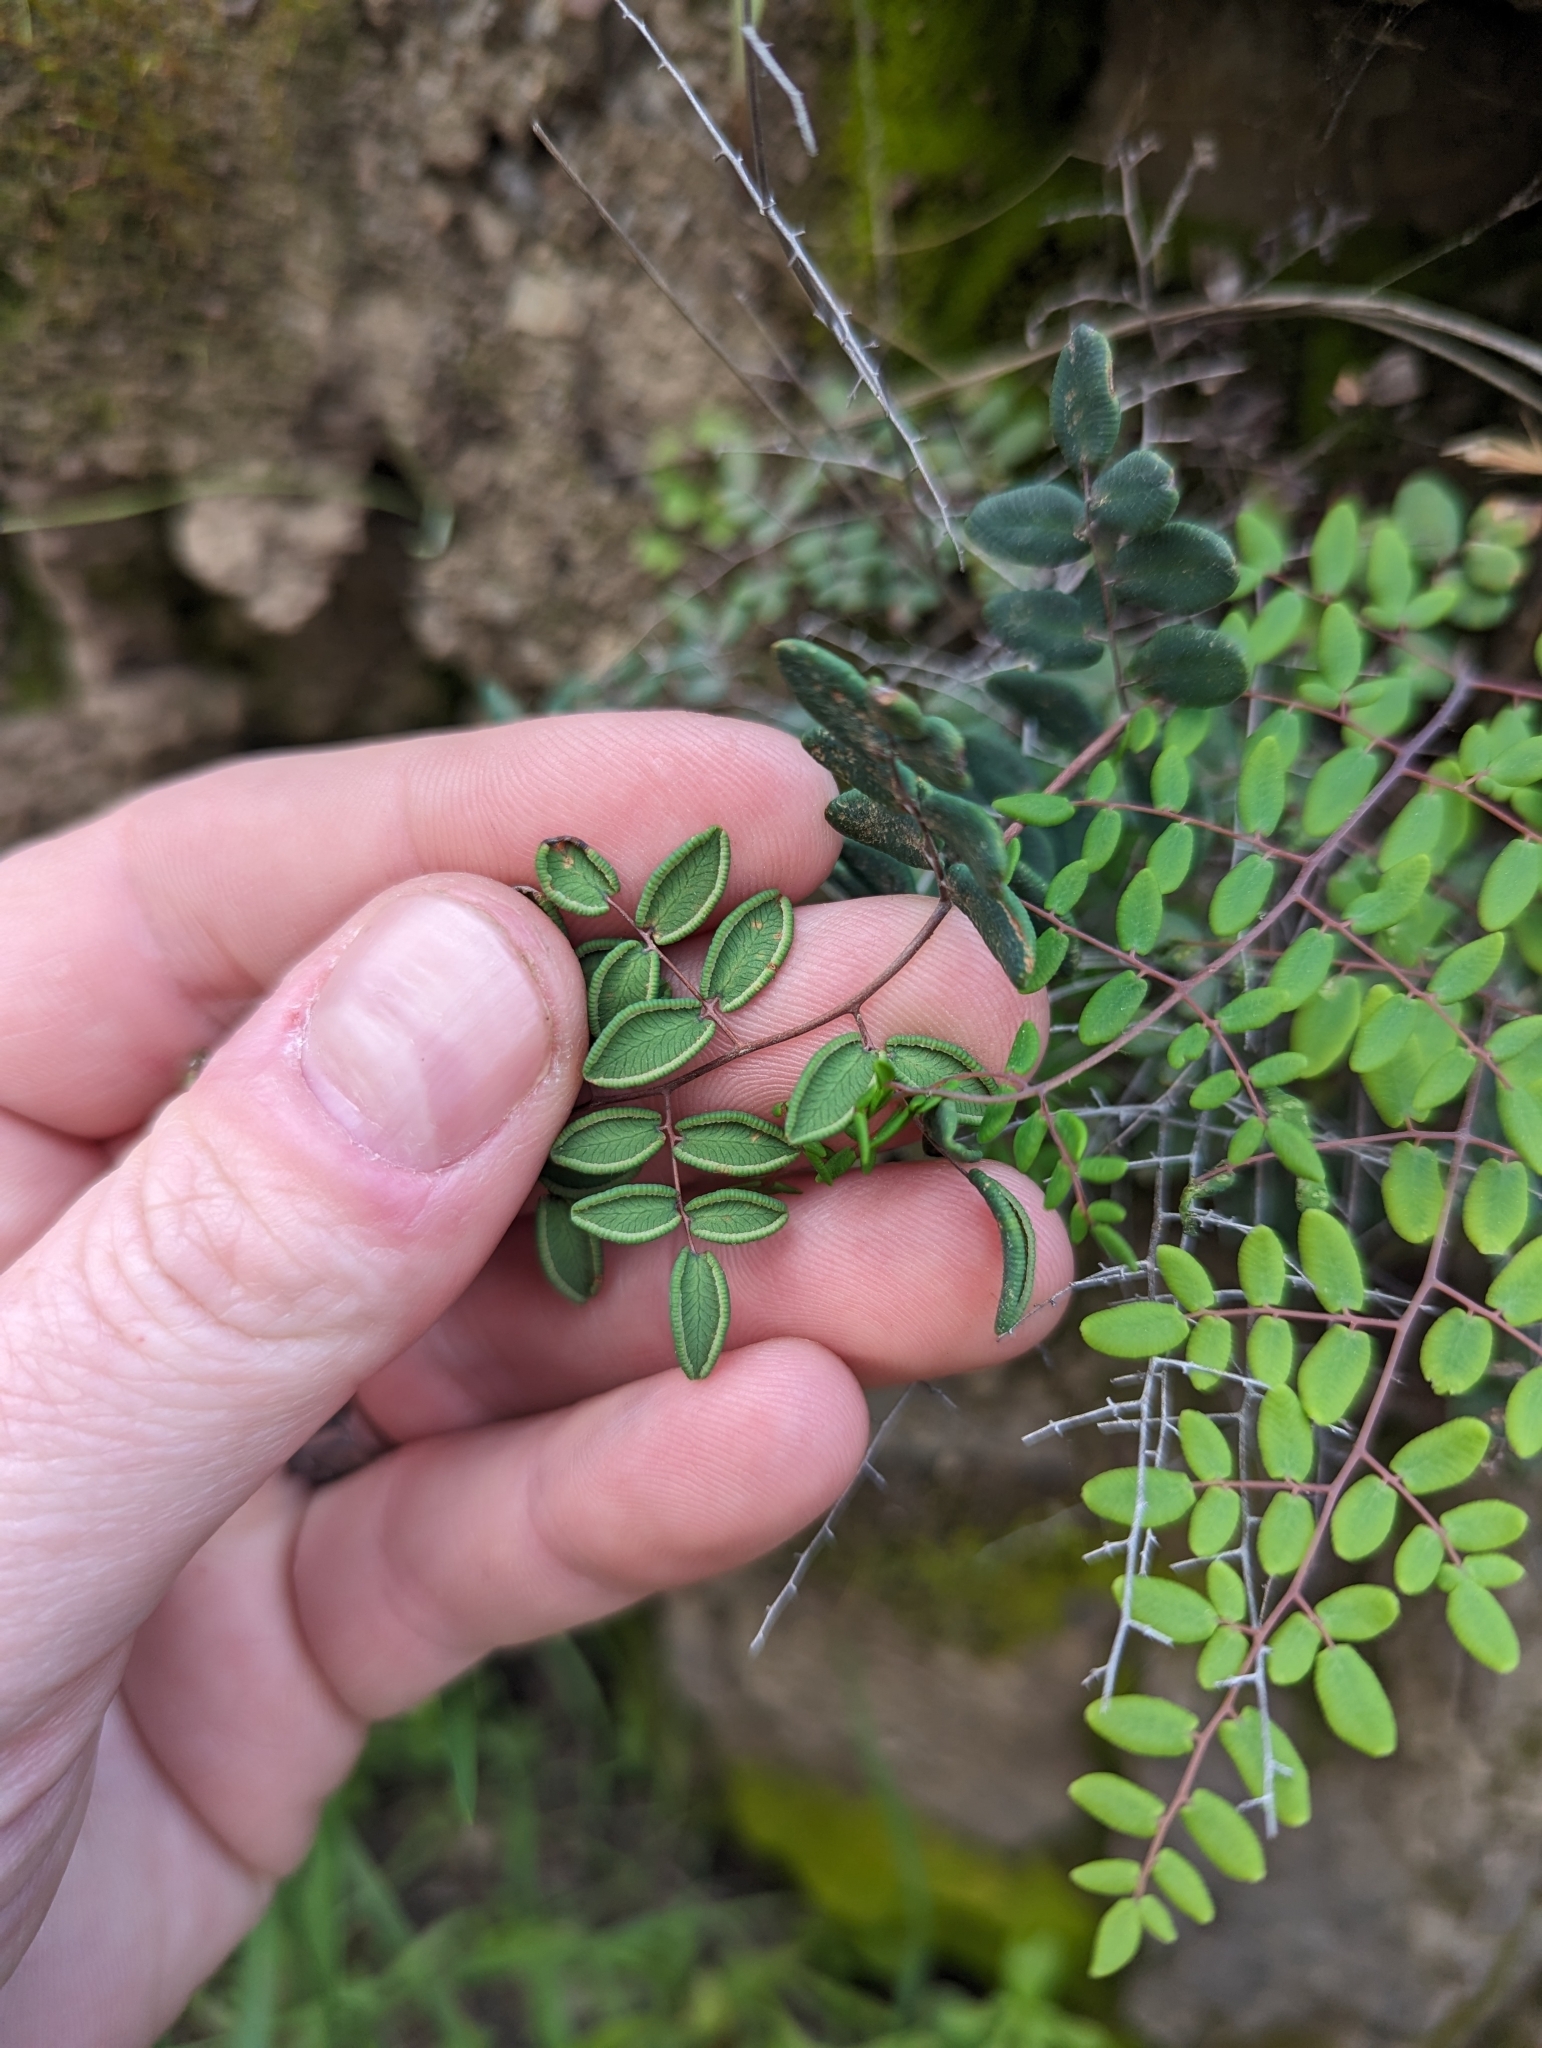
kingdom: Plantae
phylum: Tracheophyta
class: Polypodiopsida
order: Polypodiales
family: Pteridaceae
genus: Pellaea
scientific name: Pellaea andromedifolia
